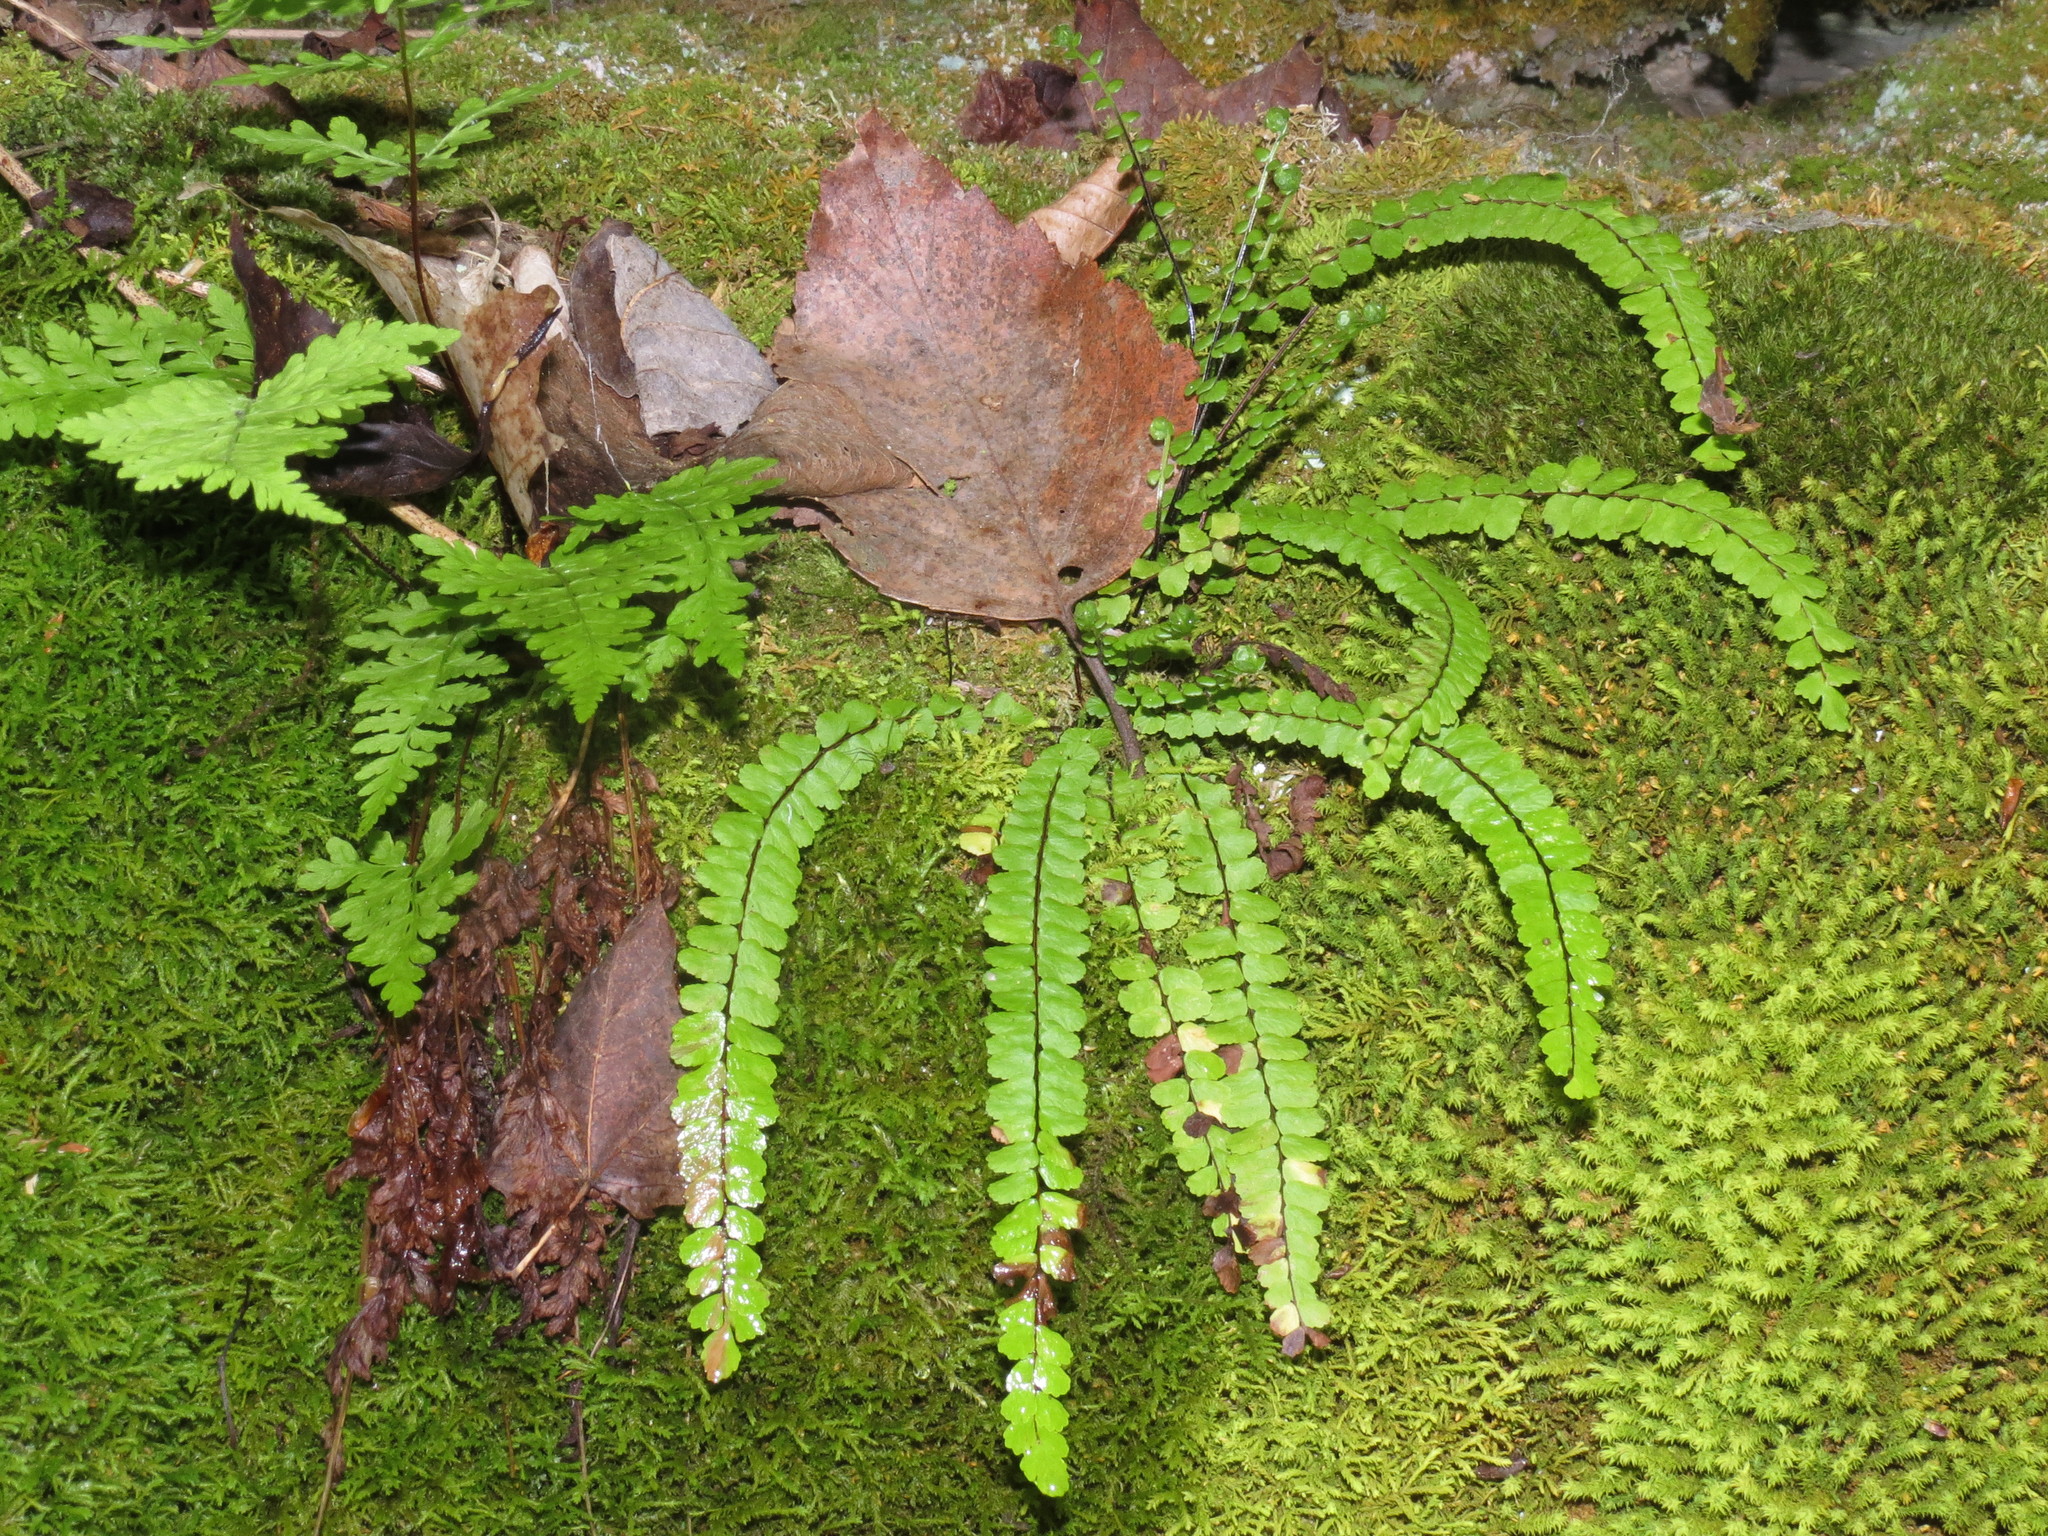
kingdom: Plantae
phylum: Tracheophyta
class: Polypodiopsida
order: Polypodiales
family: Aspleniaceae
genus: Asplenium
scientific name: Asplenium trichomanes
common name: Maidenhair spleenwort
